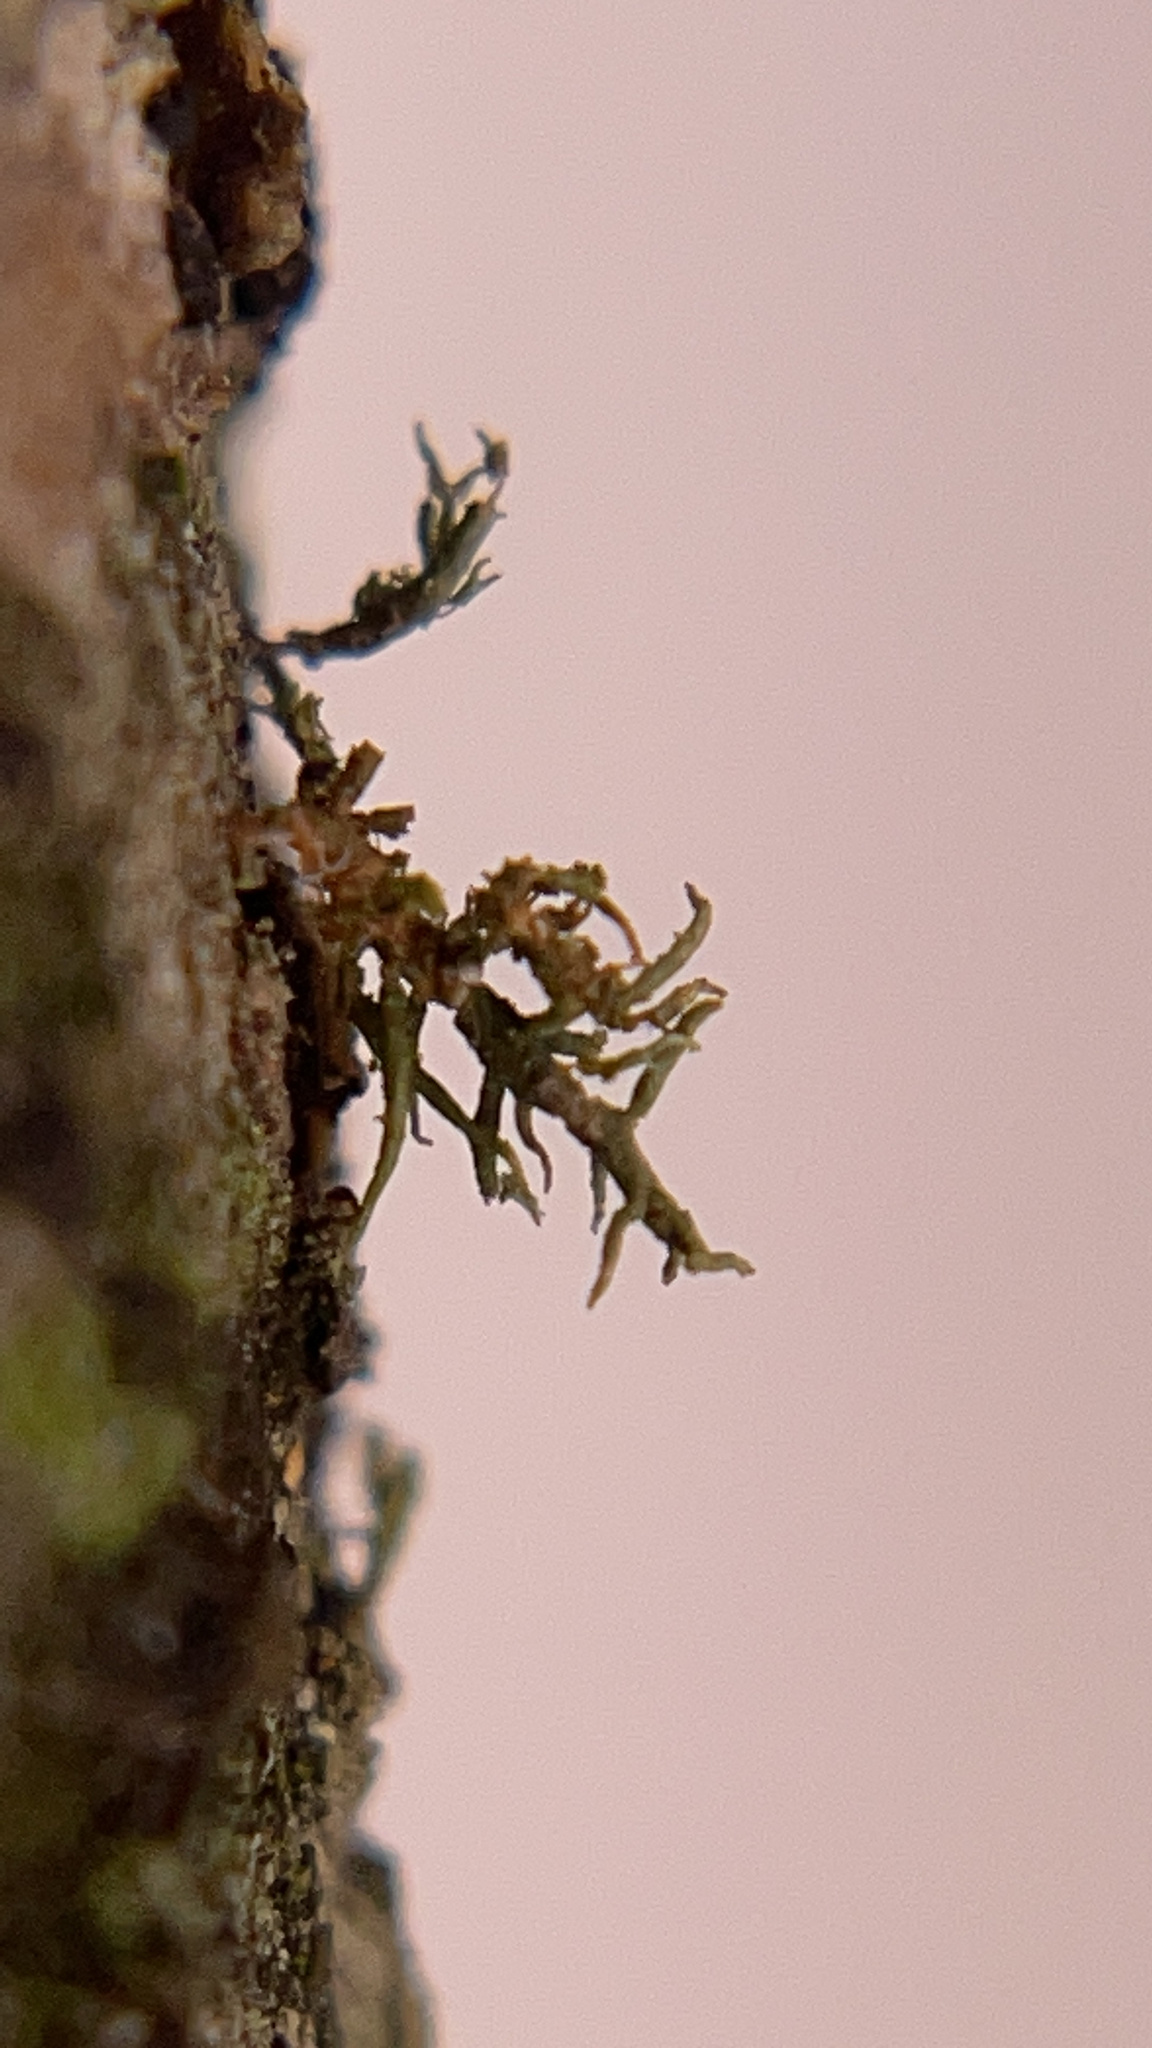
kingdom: Fungi
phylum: Ascomycota
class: Lecanoromycetes
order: Lecanorales
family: Parmeliaceae
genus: Usnea
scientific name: Usnea
